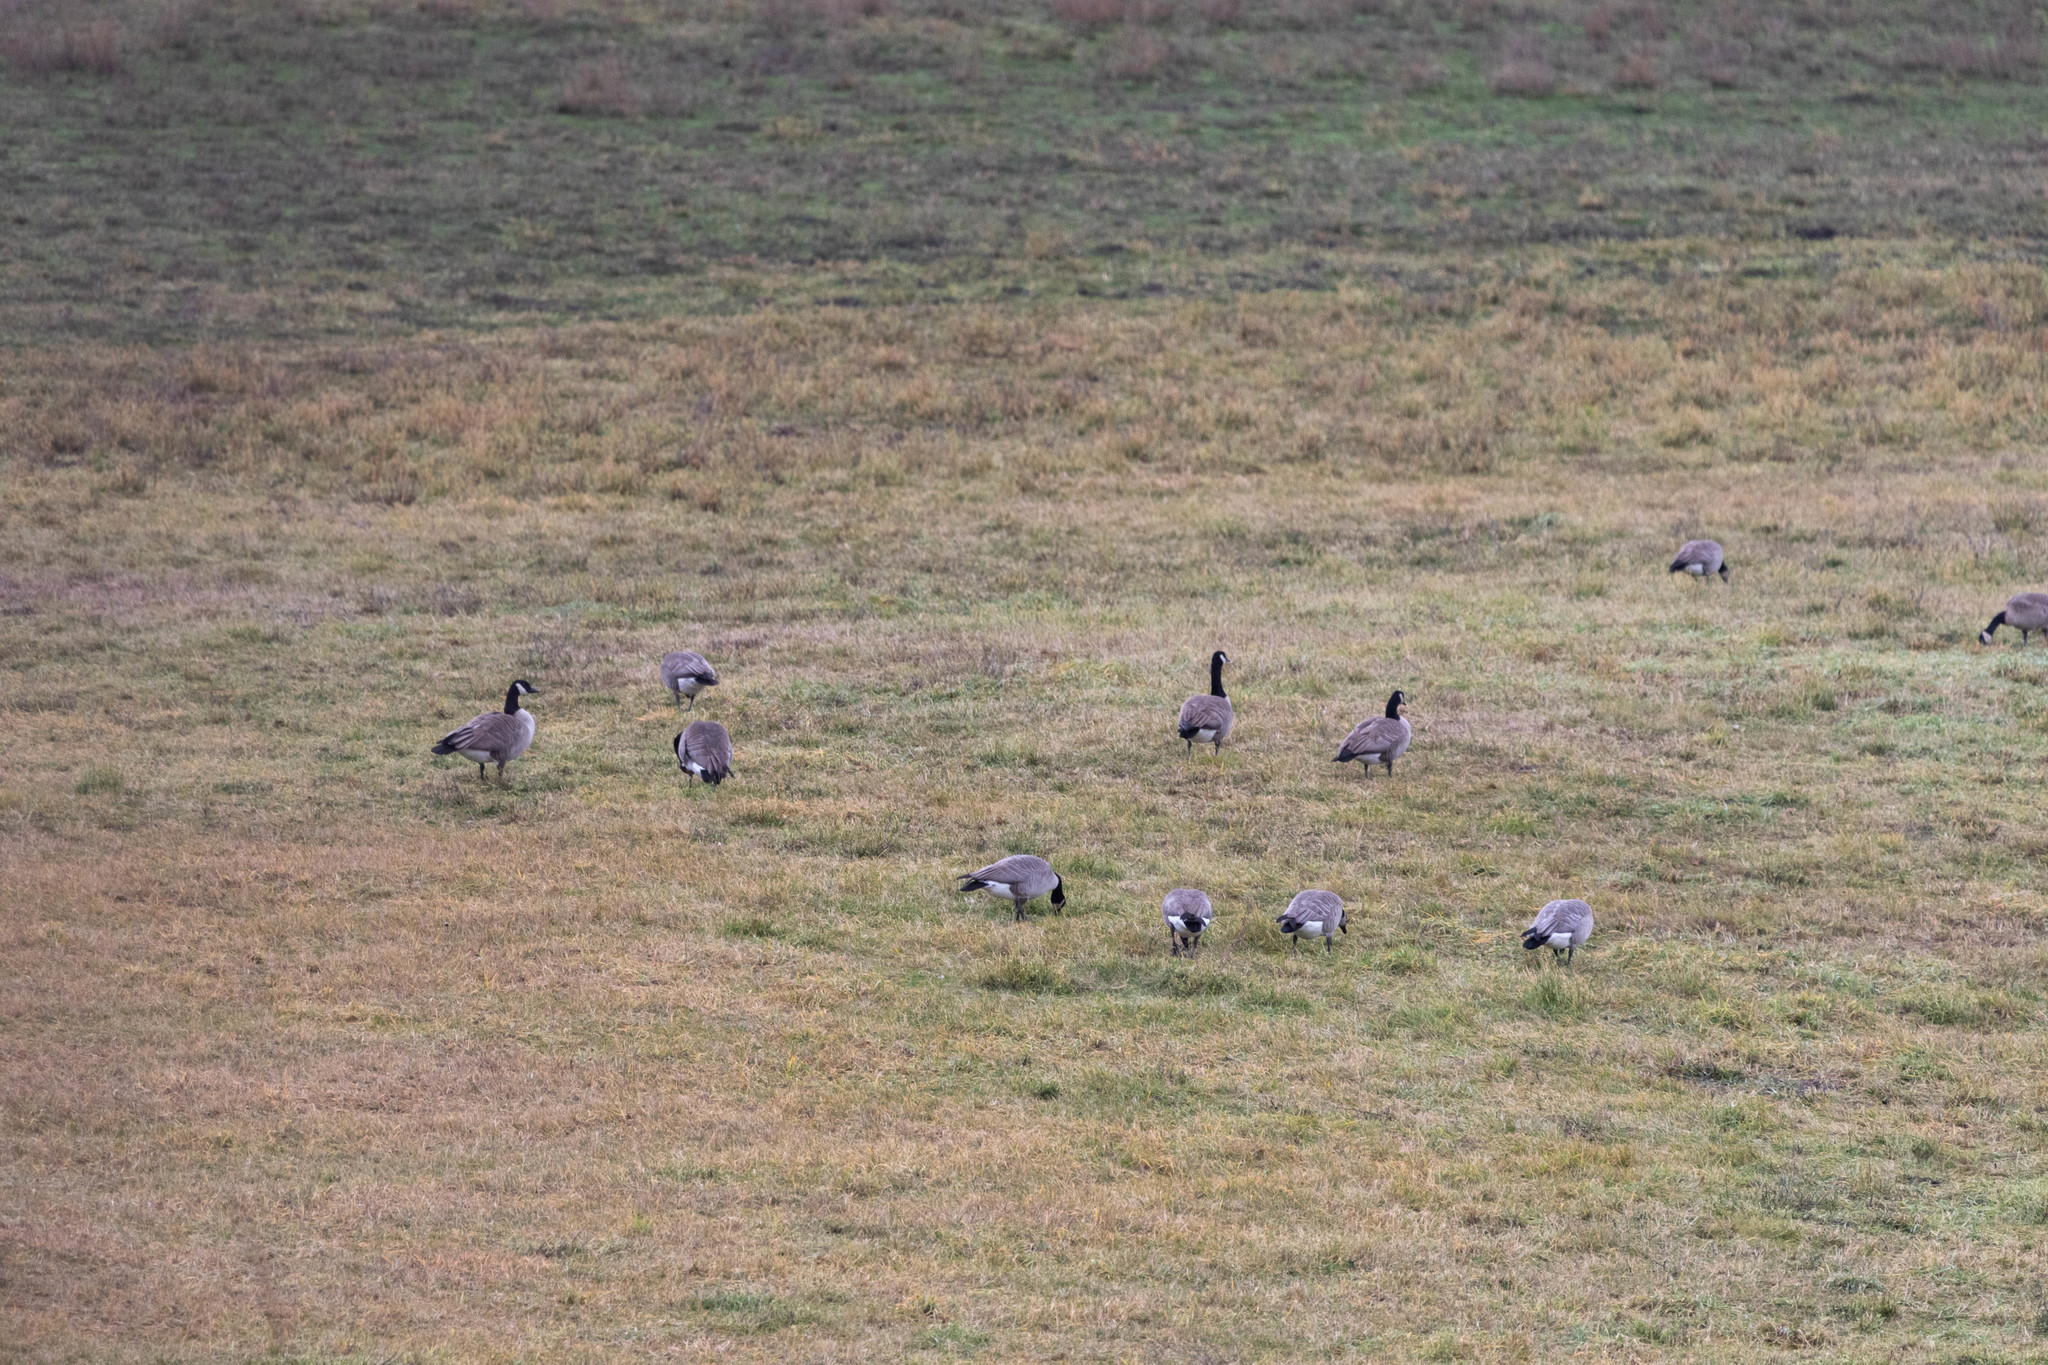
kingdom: Animalia
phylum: Chordata
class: Aves
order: Anseriformes
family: Anatidae
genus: Branta
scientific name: Branta canadensis
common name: Canada goose
